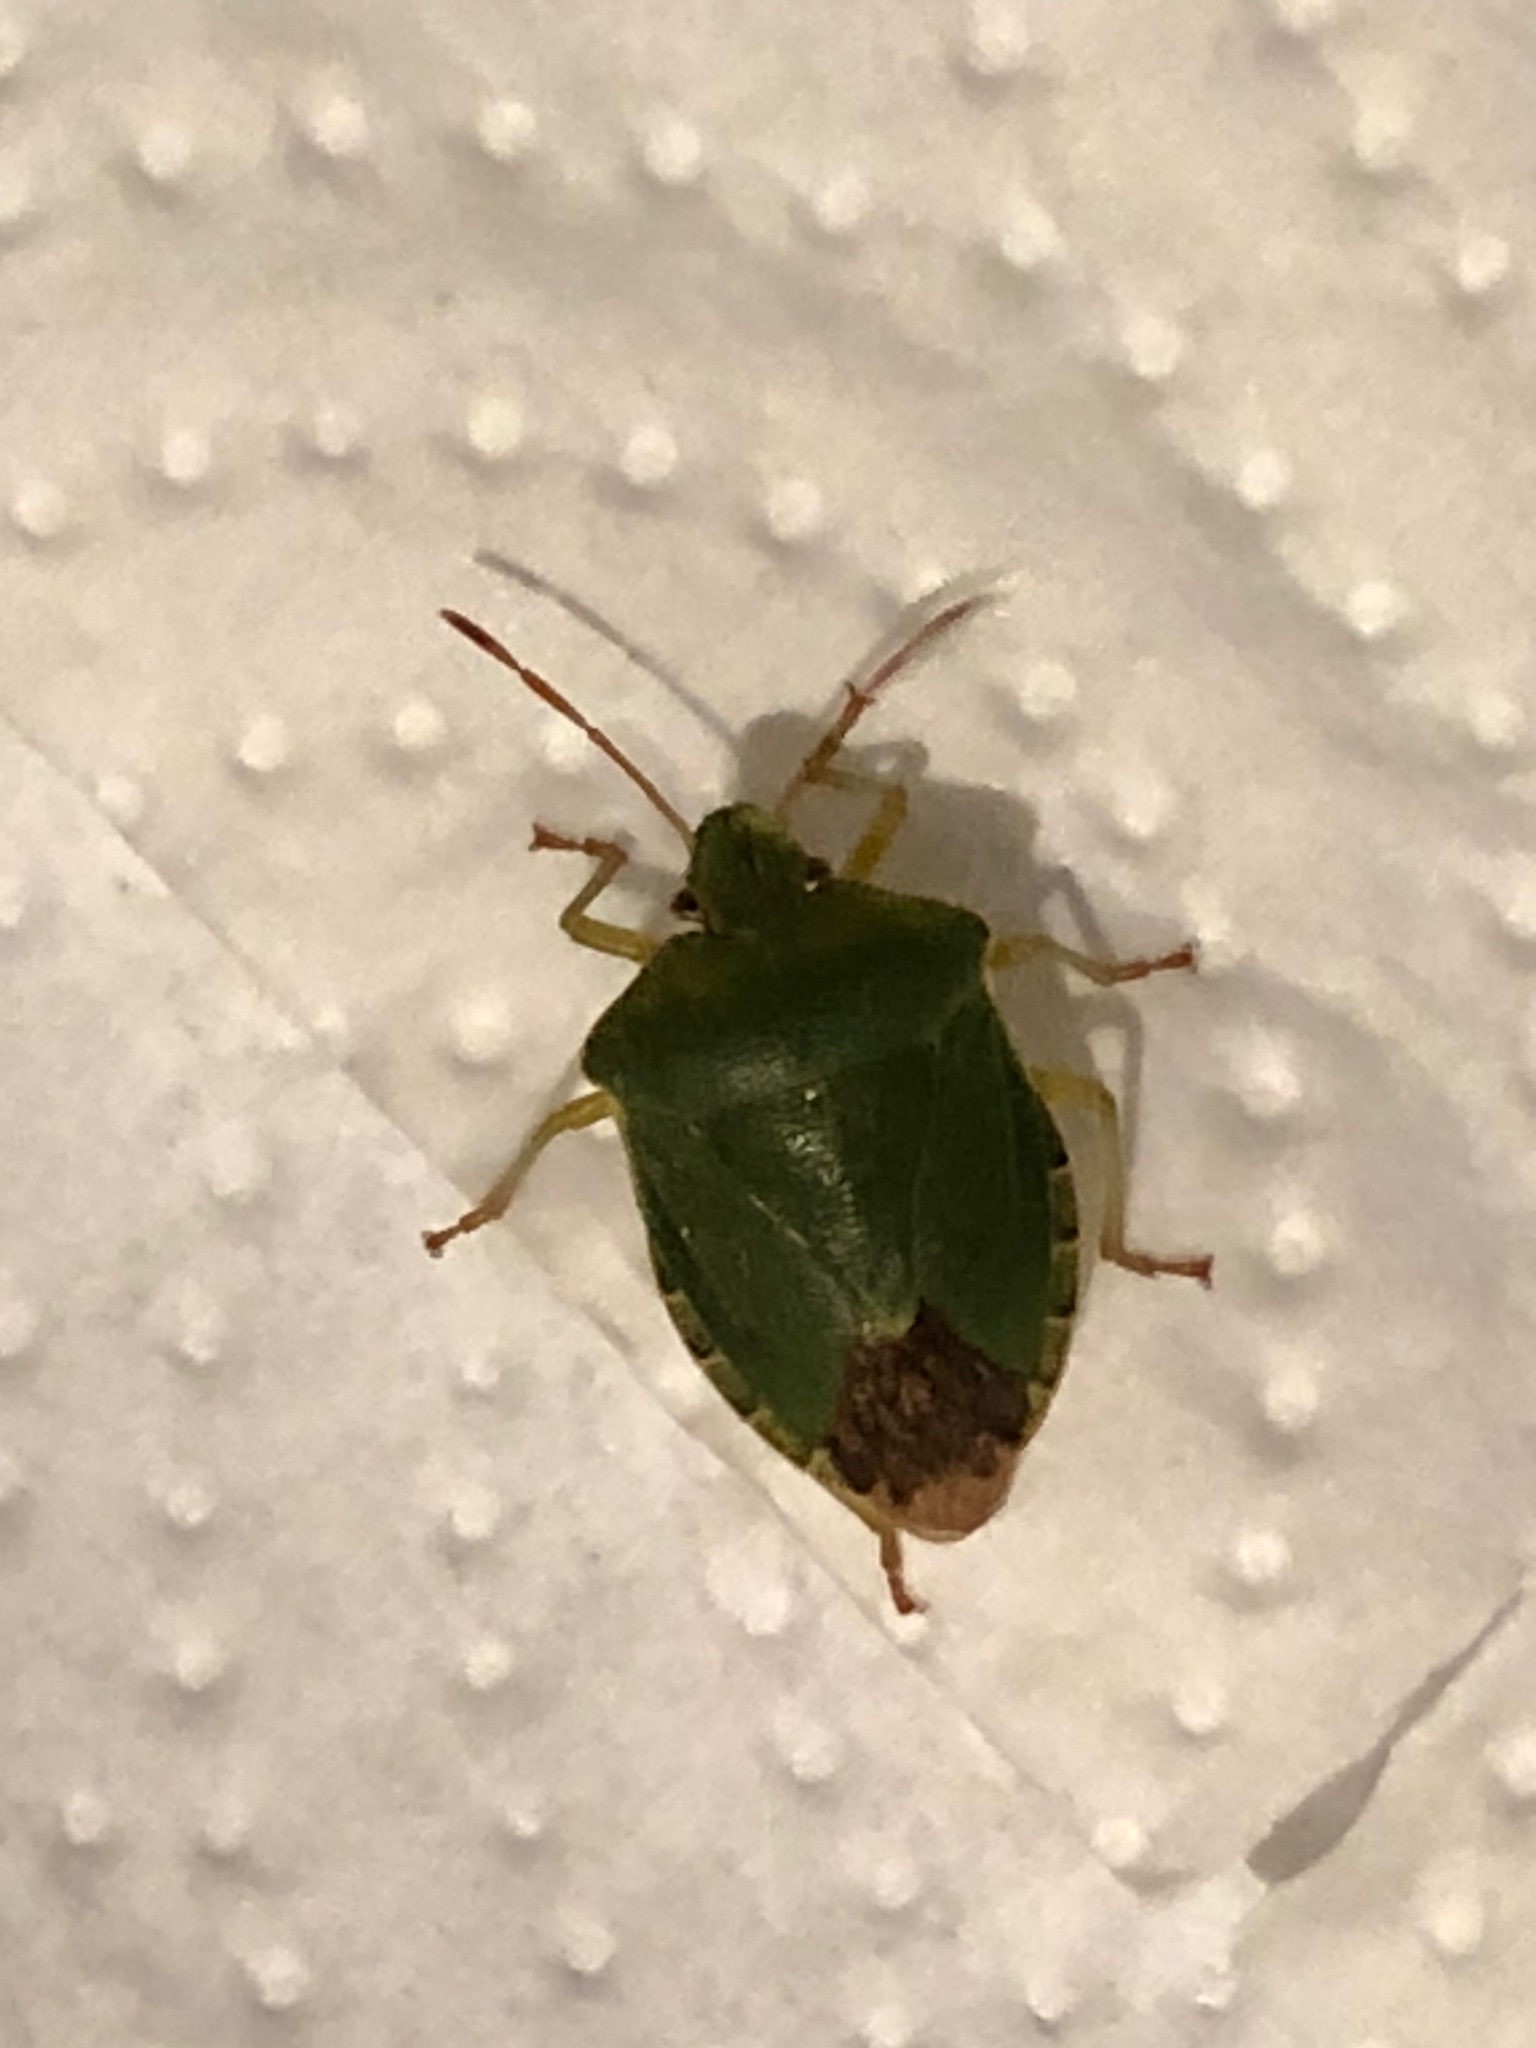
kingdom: Animalia
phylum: Arthropoda
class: Insecta
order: Hemiptera
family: Pentatomidae
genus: Palomena
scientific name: Palomena prasina
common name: Green shieldbug
